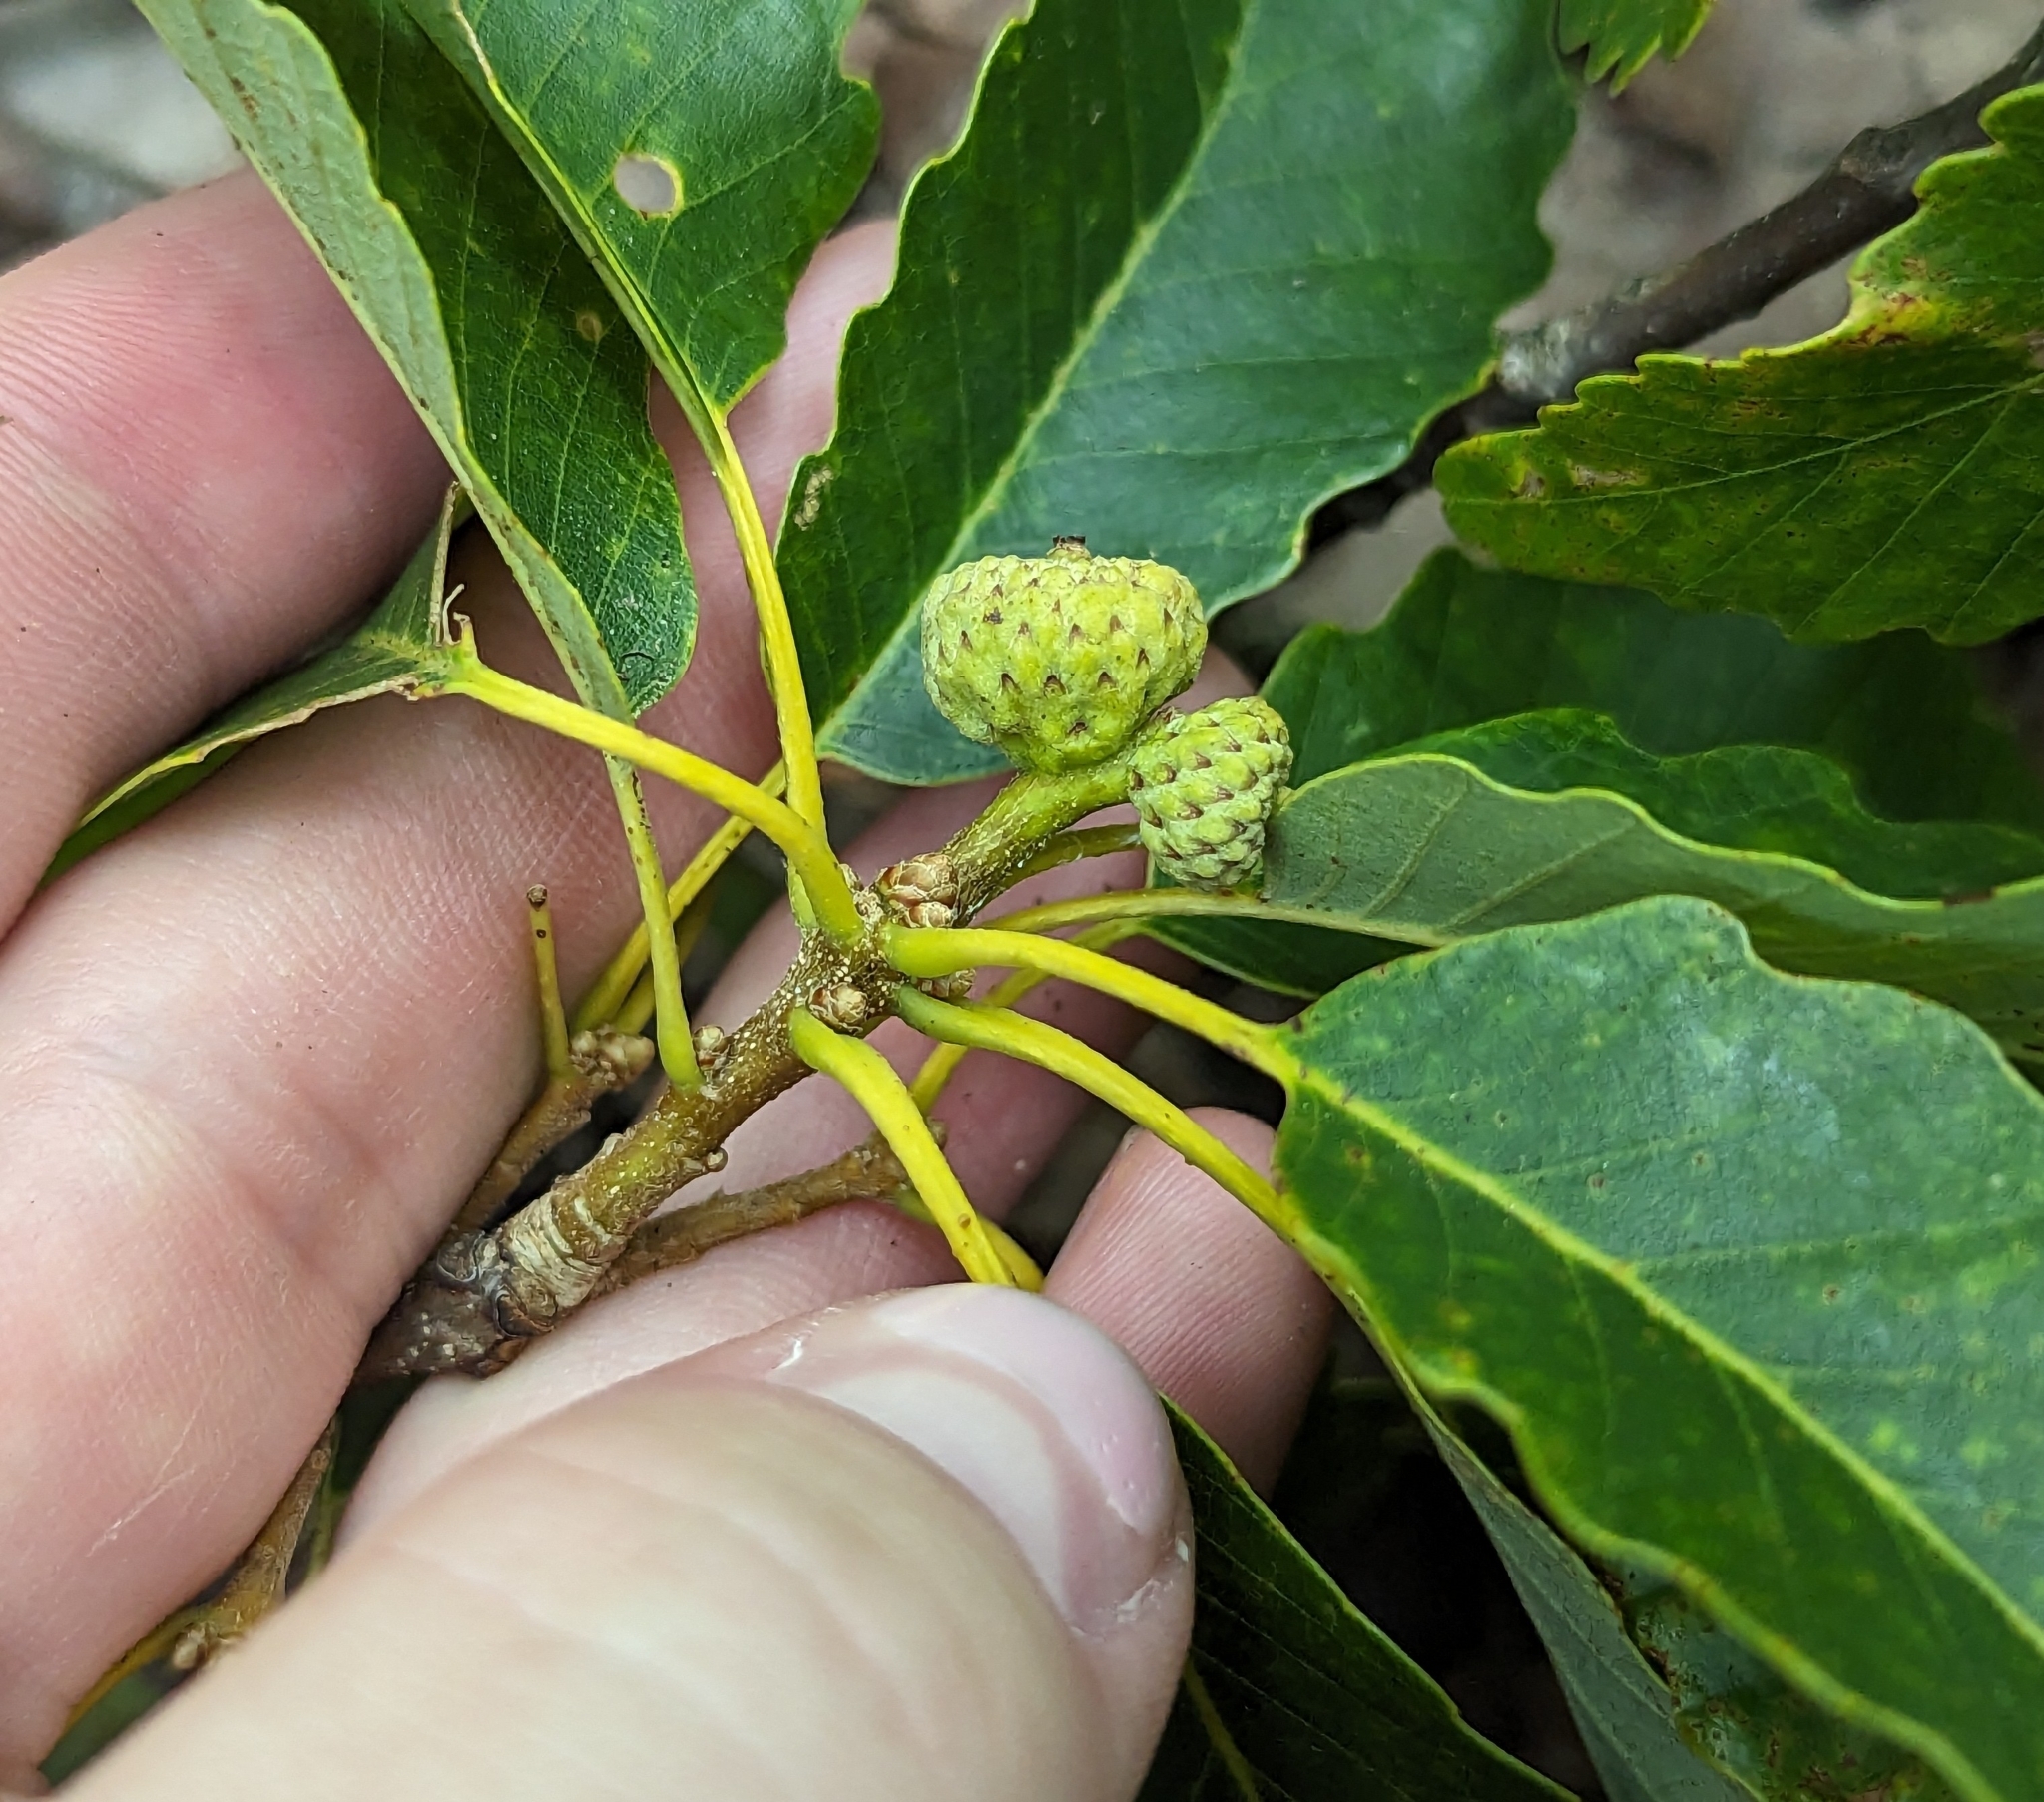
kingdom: Plantae
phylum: Tracheophyta
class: Magnoliopsida
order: Fagales
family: Fagaceae
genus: Quercus
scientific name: Quercus montana
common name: Chestnut oak
